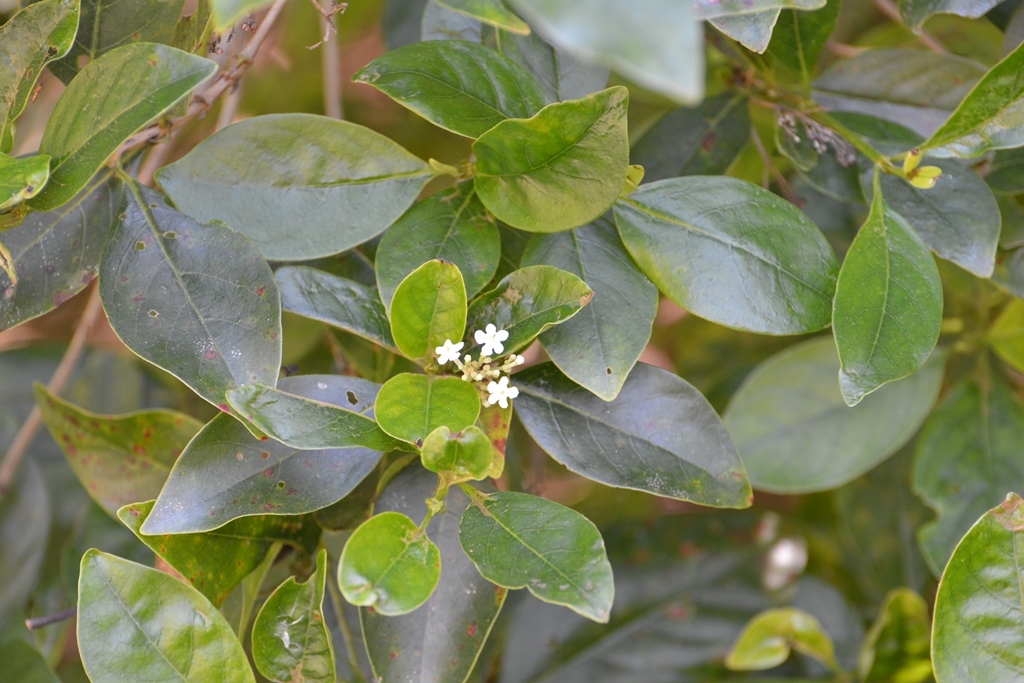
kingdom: Plantae
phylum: Tracheophyta
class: Magnoliopsida
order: Gentianales
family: Rubiaceae
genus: Rogiera
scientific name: Rogiera amoena
